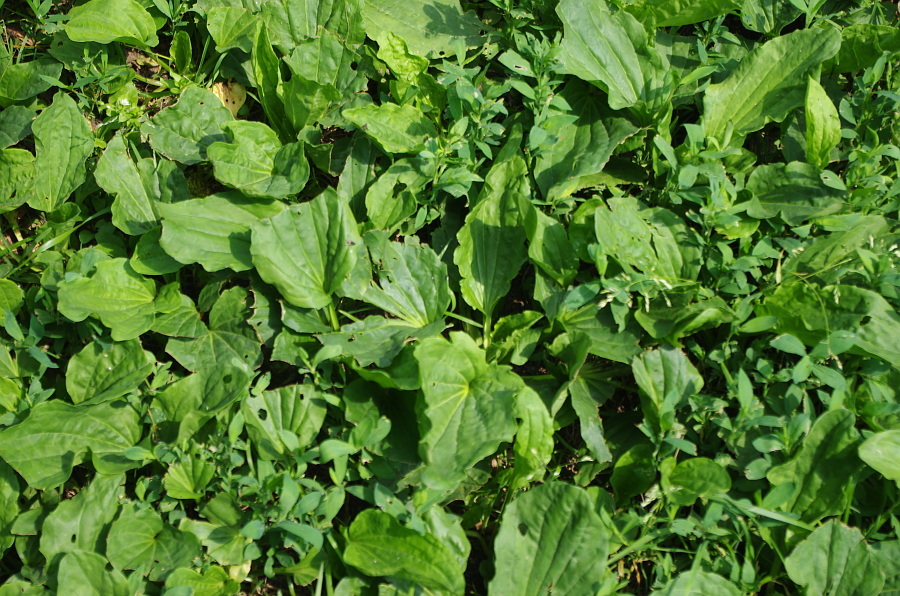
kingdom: Plantae
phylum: Tracheophyta
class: Magnoliopsida
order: Lamiales
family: Plantaginaceae
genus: Plantago
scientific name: Plantago major
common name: Common plantain
